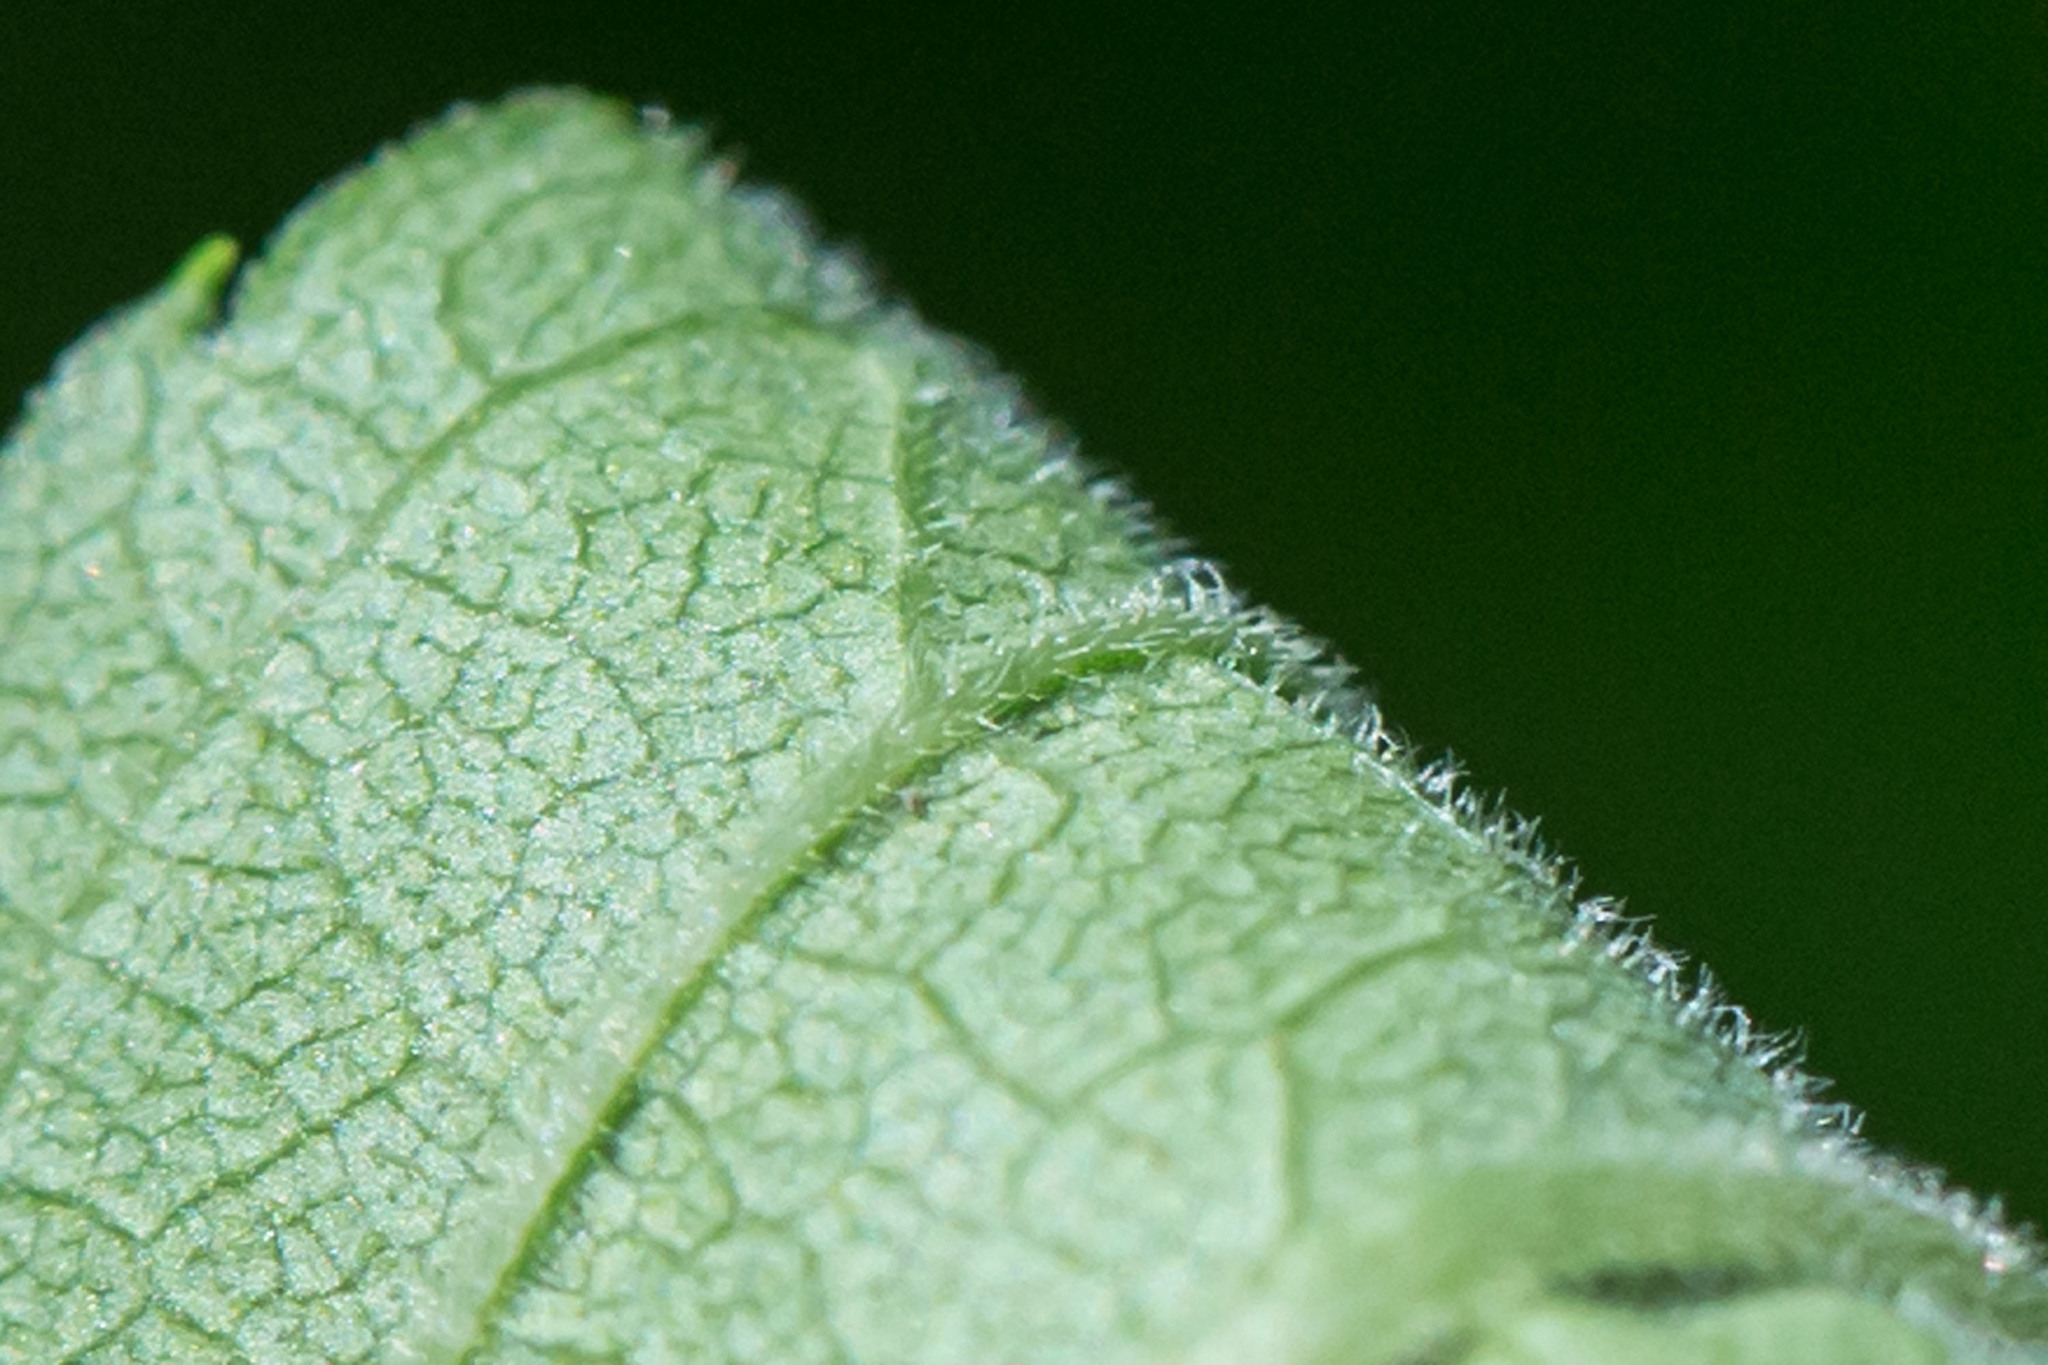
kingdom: Plantae
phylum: Tracheophyta
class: Magnoliopsida
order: Asterales
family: Asteraceae
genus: Solidago
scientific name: Solidago altissima
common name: Late goldenrod
